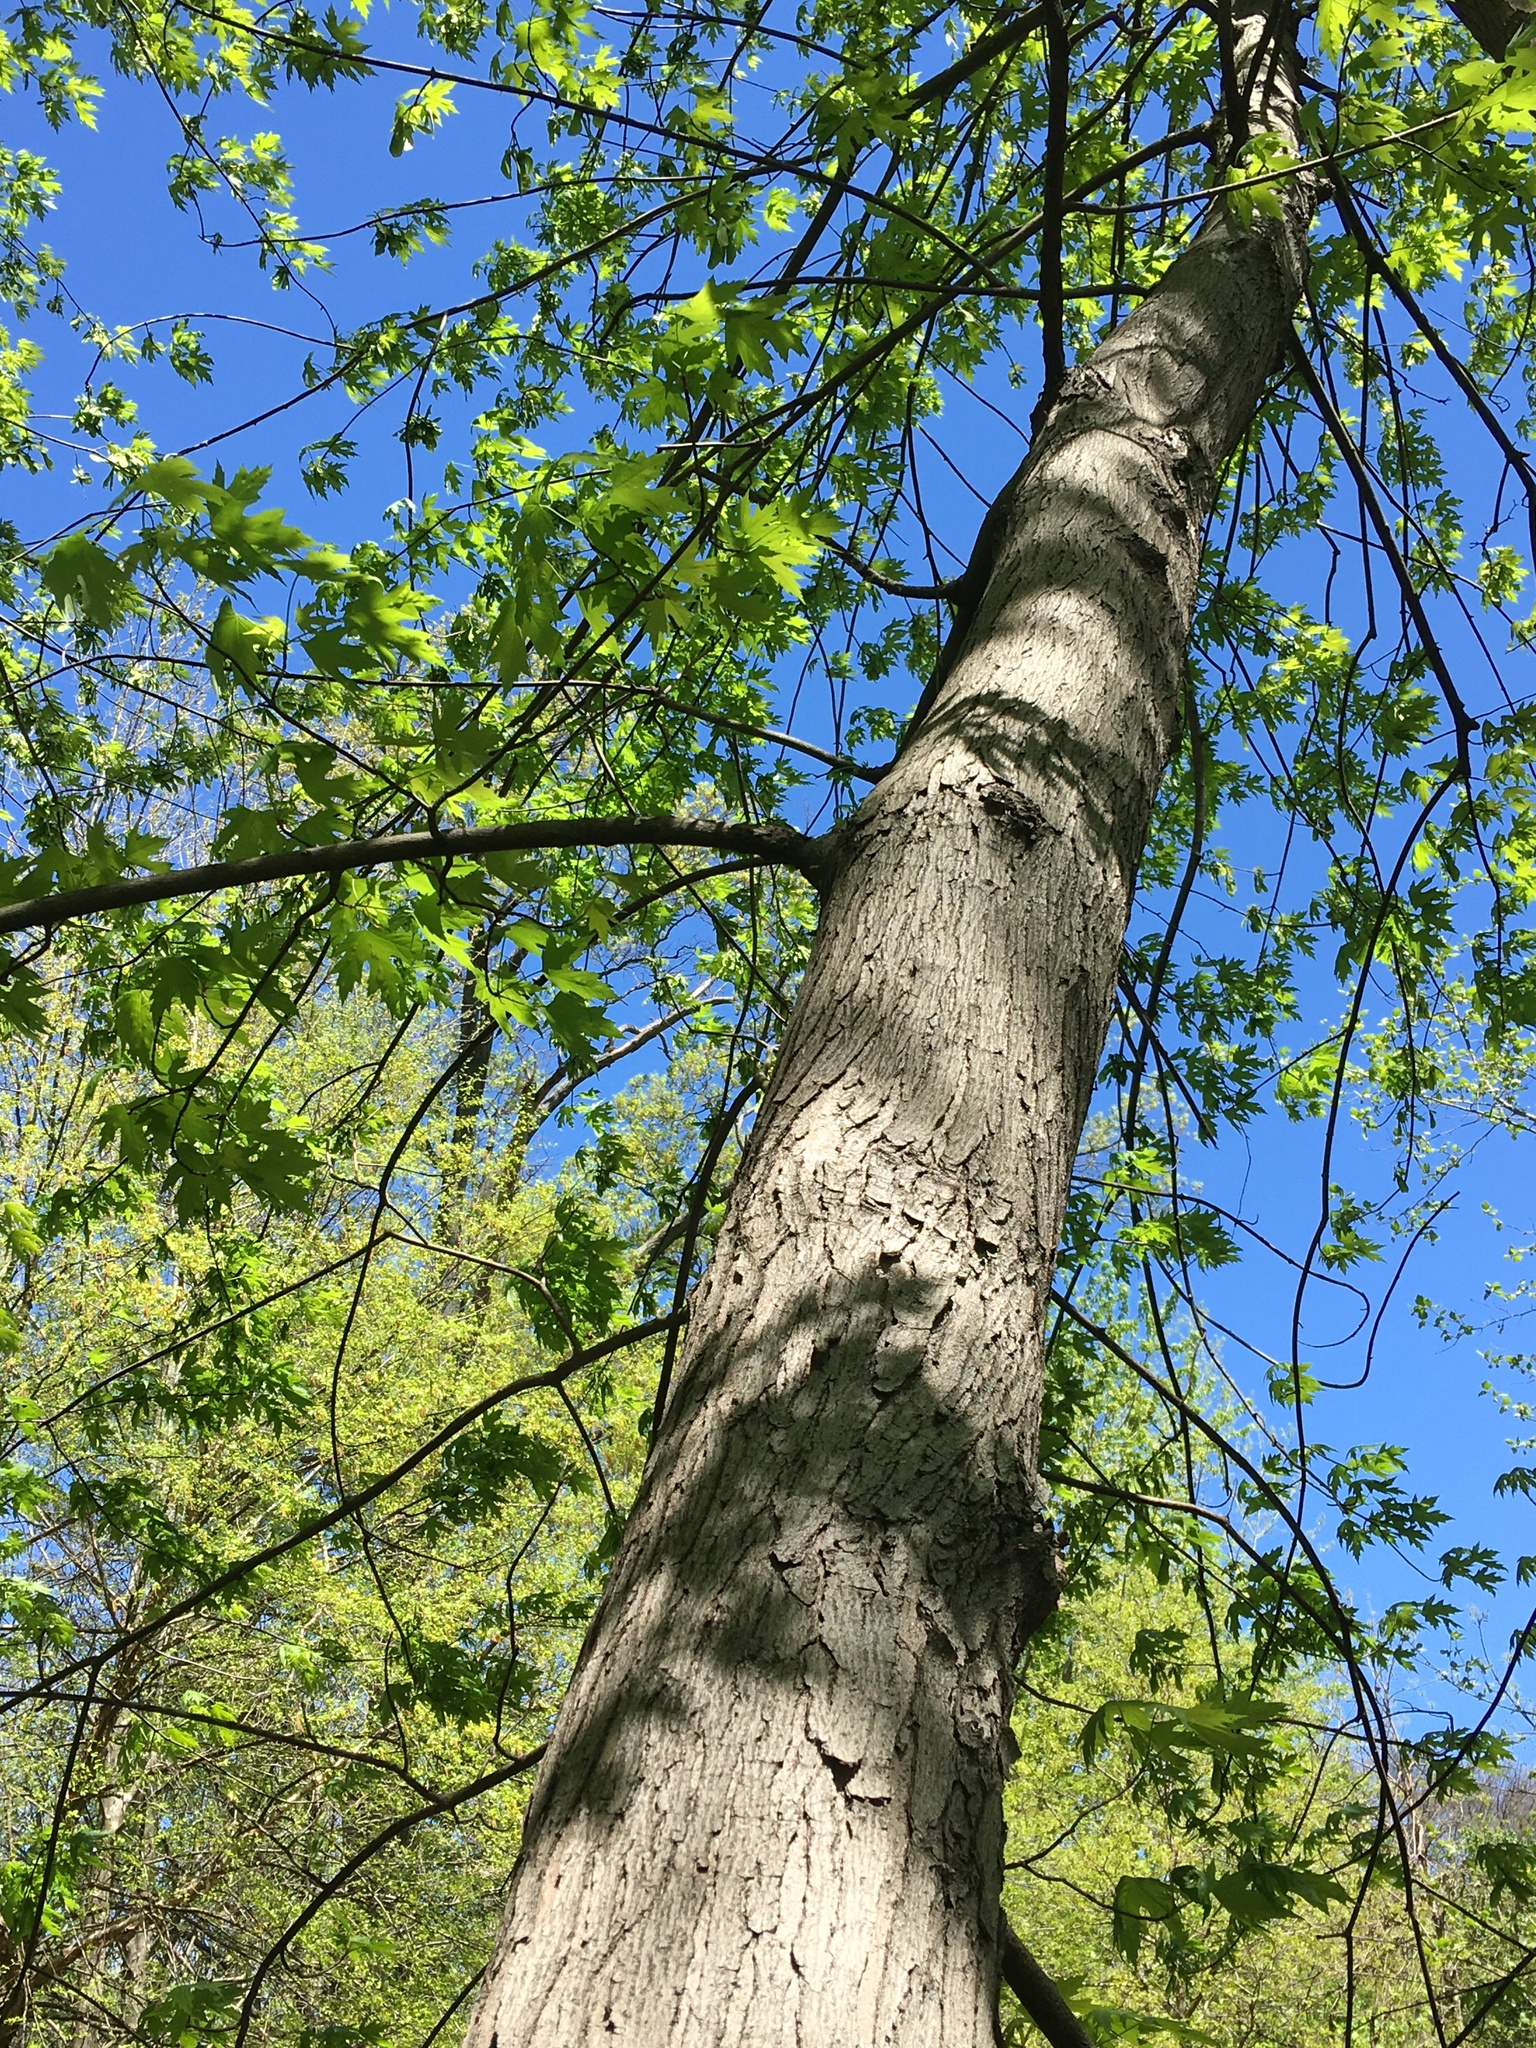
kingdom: Plantae
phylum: Tracheophyta
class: Magnoliopsida
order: Sapindales
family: Sapindaceae
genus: Acer
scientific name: Acer saccharinum
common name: Silver maple
